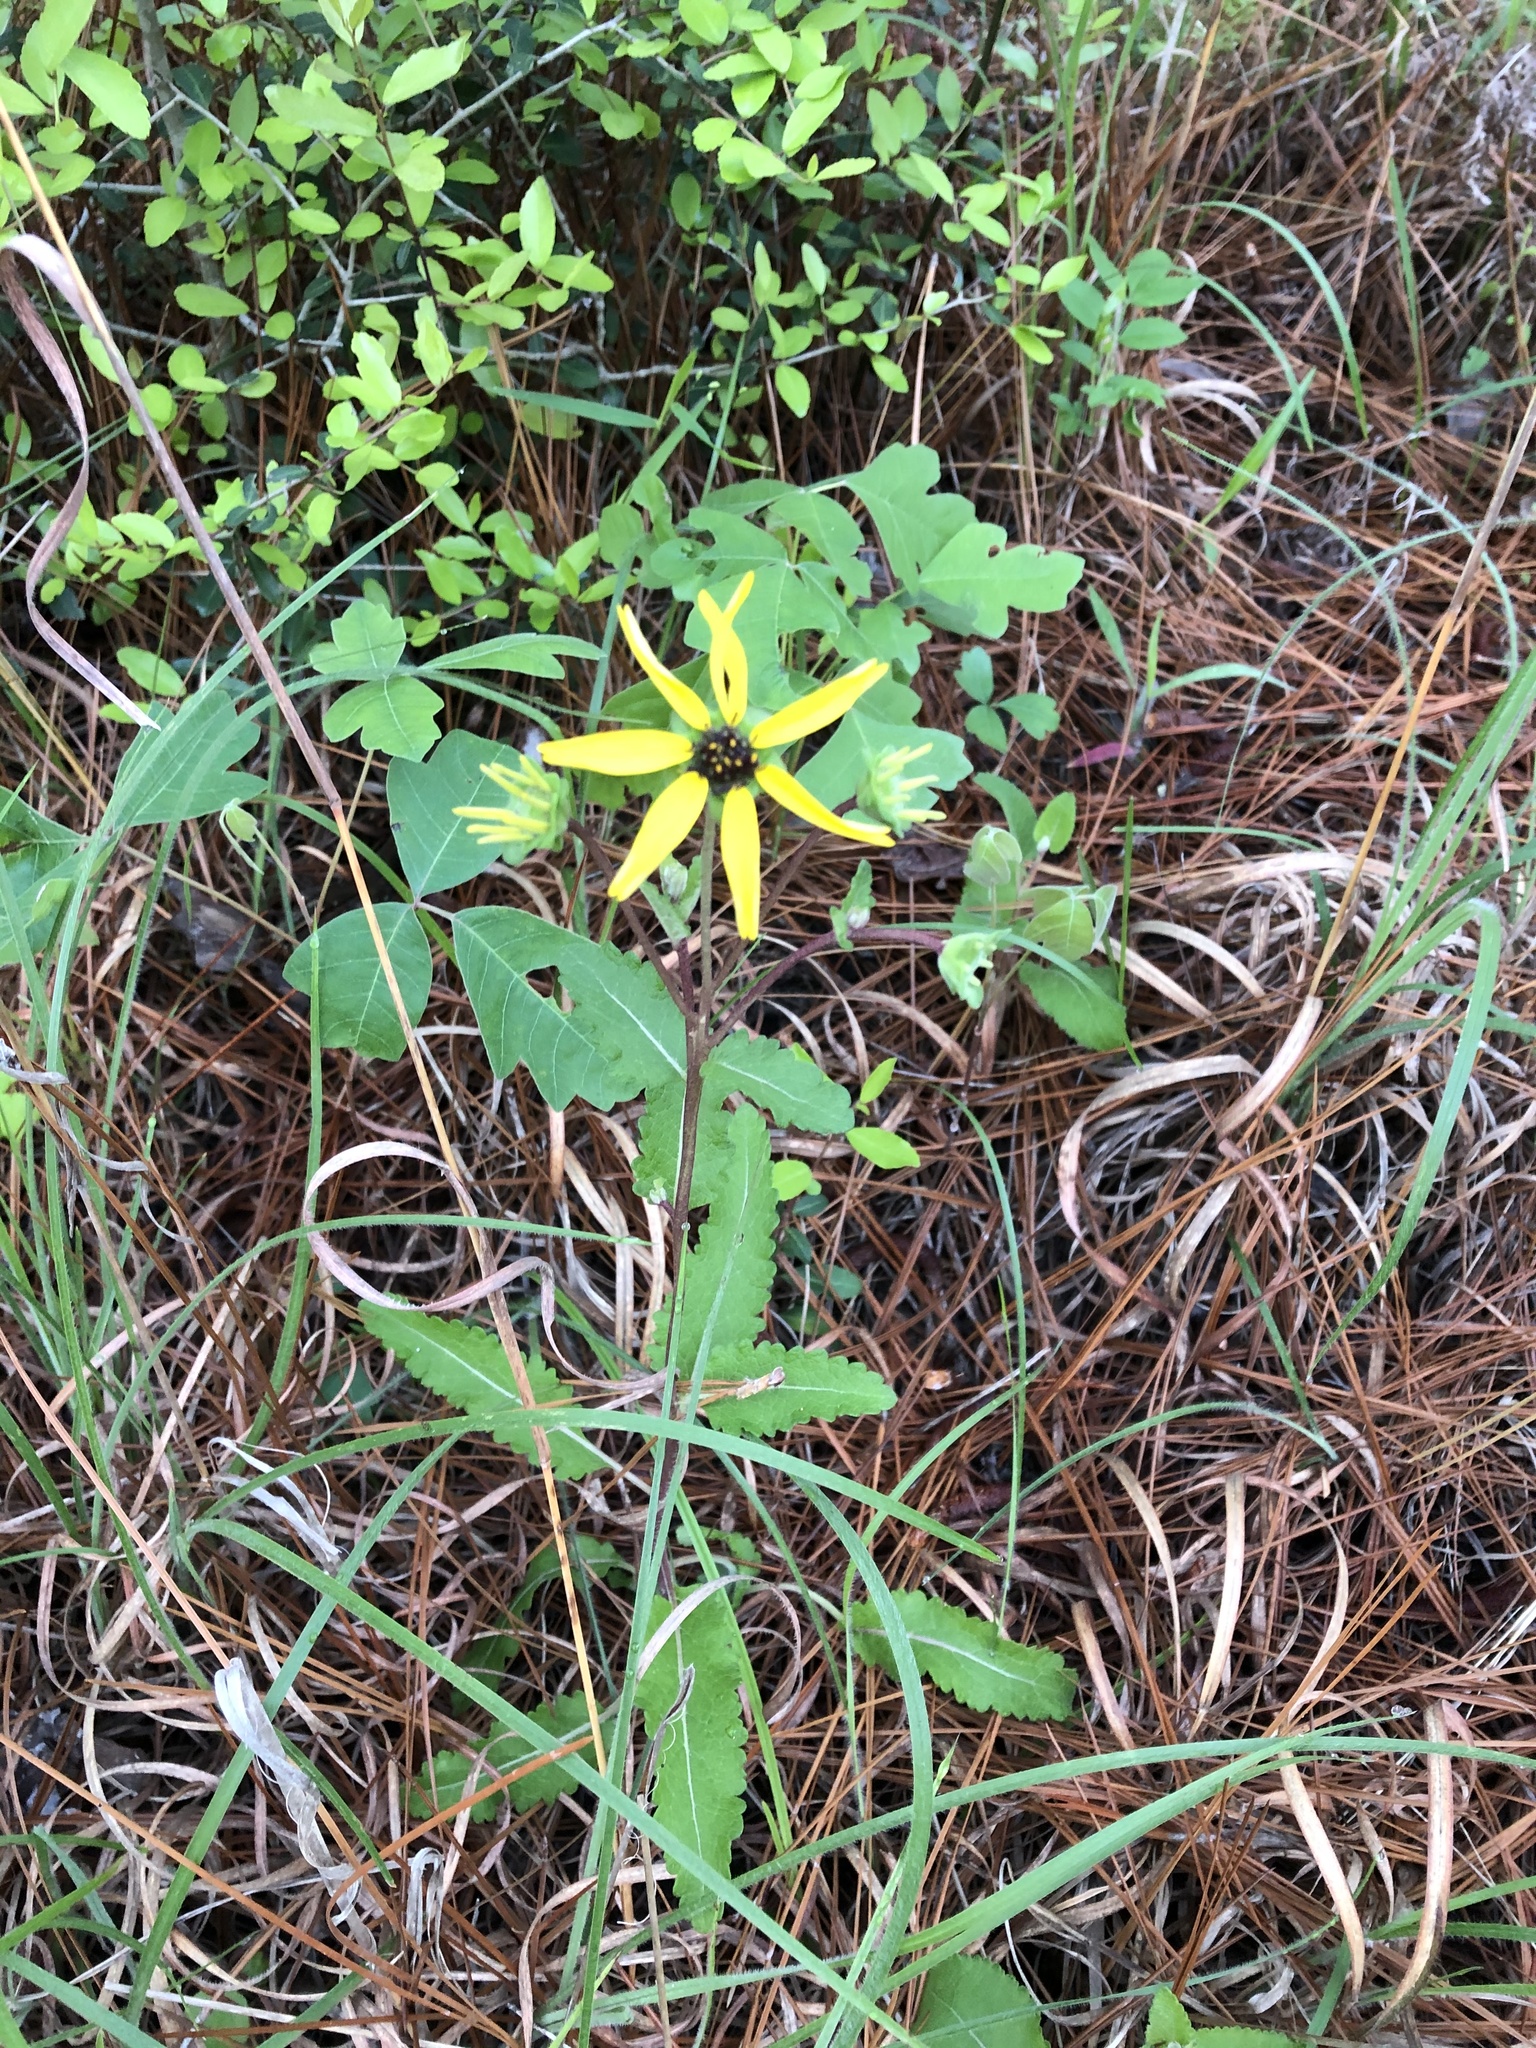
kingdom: Plantae
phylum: Tracheophyta
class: Magnoliopsida
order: Asterales
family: Asteraceae
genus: Berlandiera
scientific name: Berlandiera pumila
